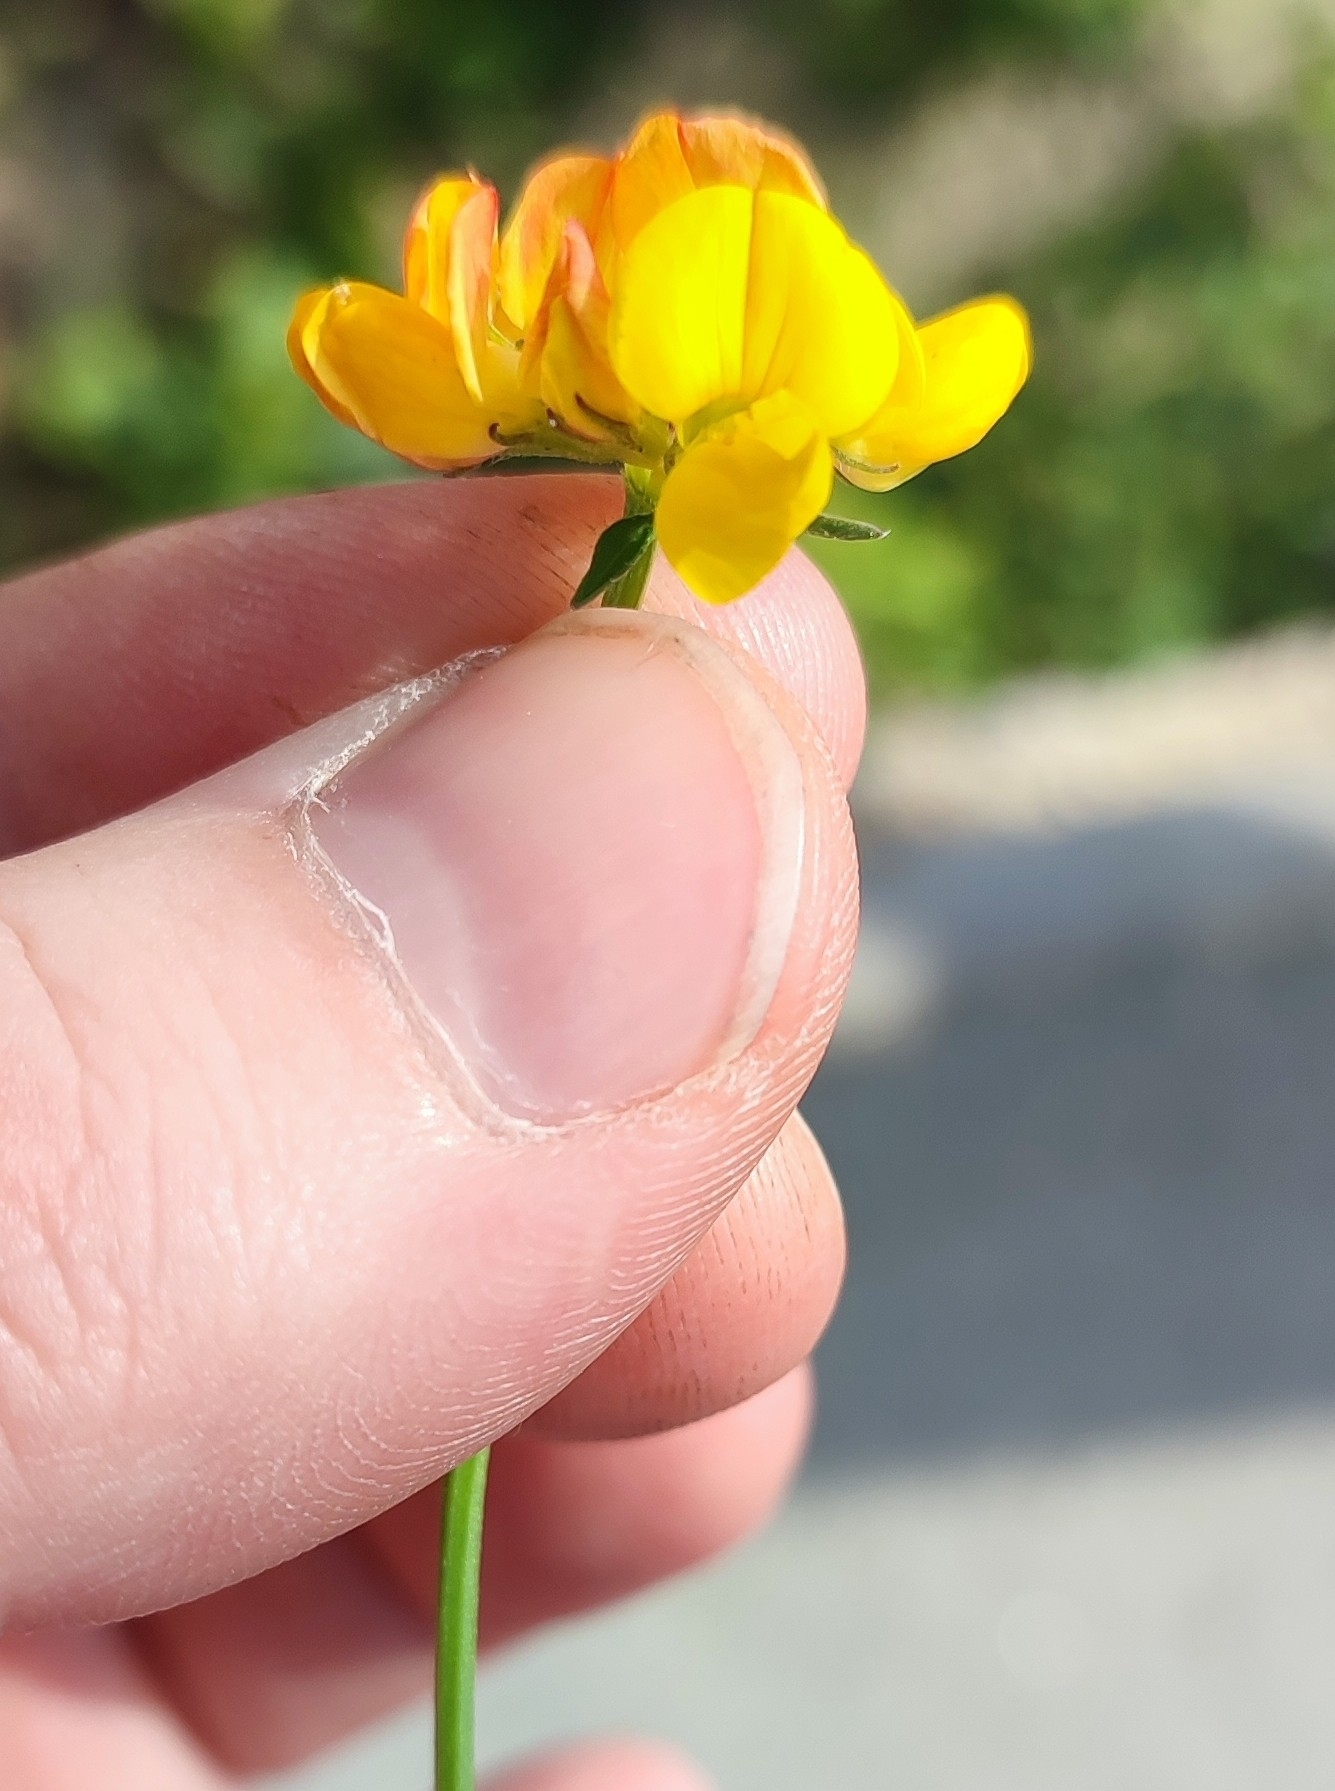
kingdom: Plantae
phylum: Tracheophyta
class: Magnoliopsida
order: Fabales
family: Fabaceae
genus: Lotus
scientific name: Lotus corniculatus
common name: Common bird's-foot-trefoil
